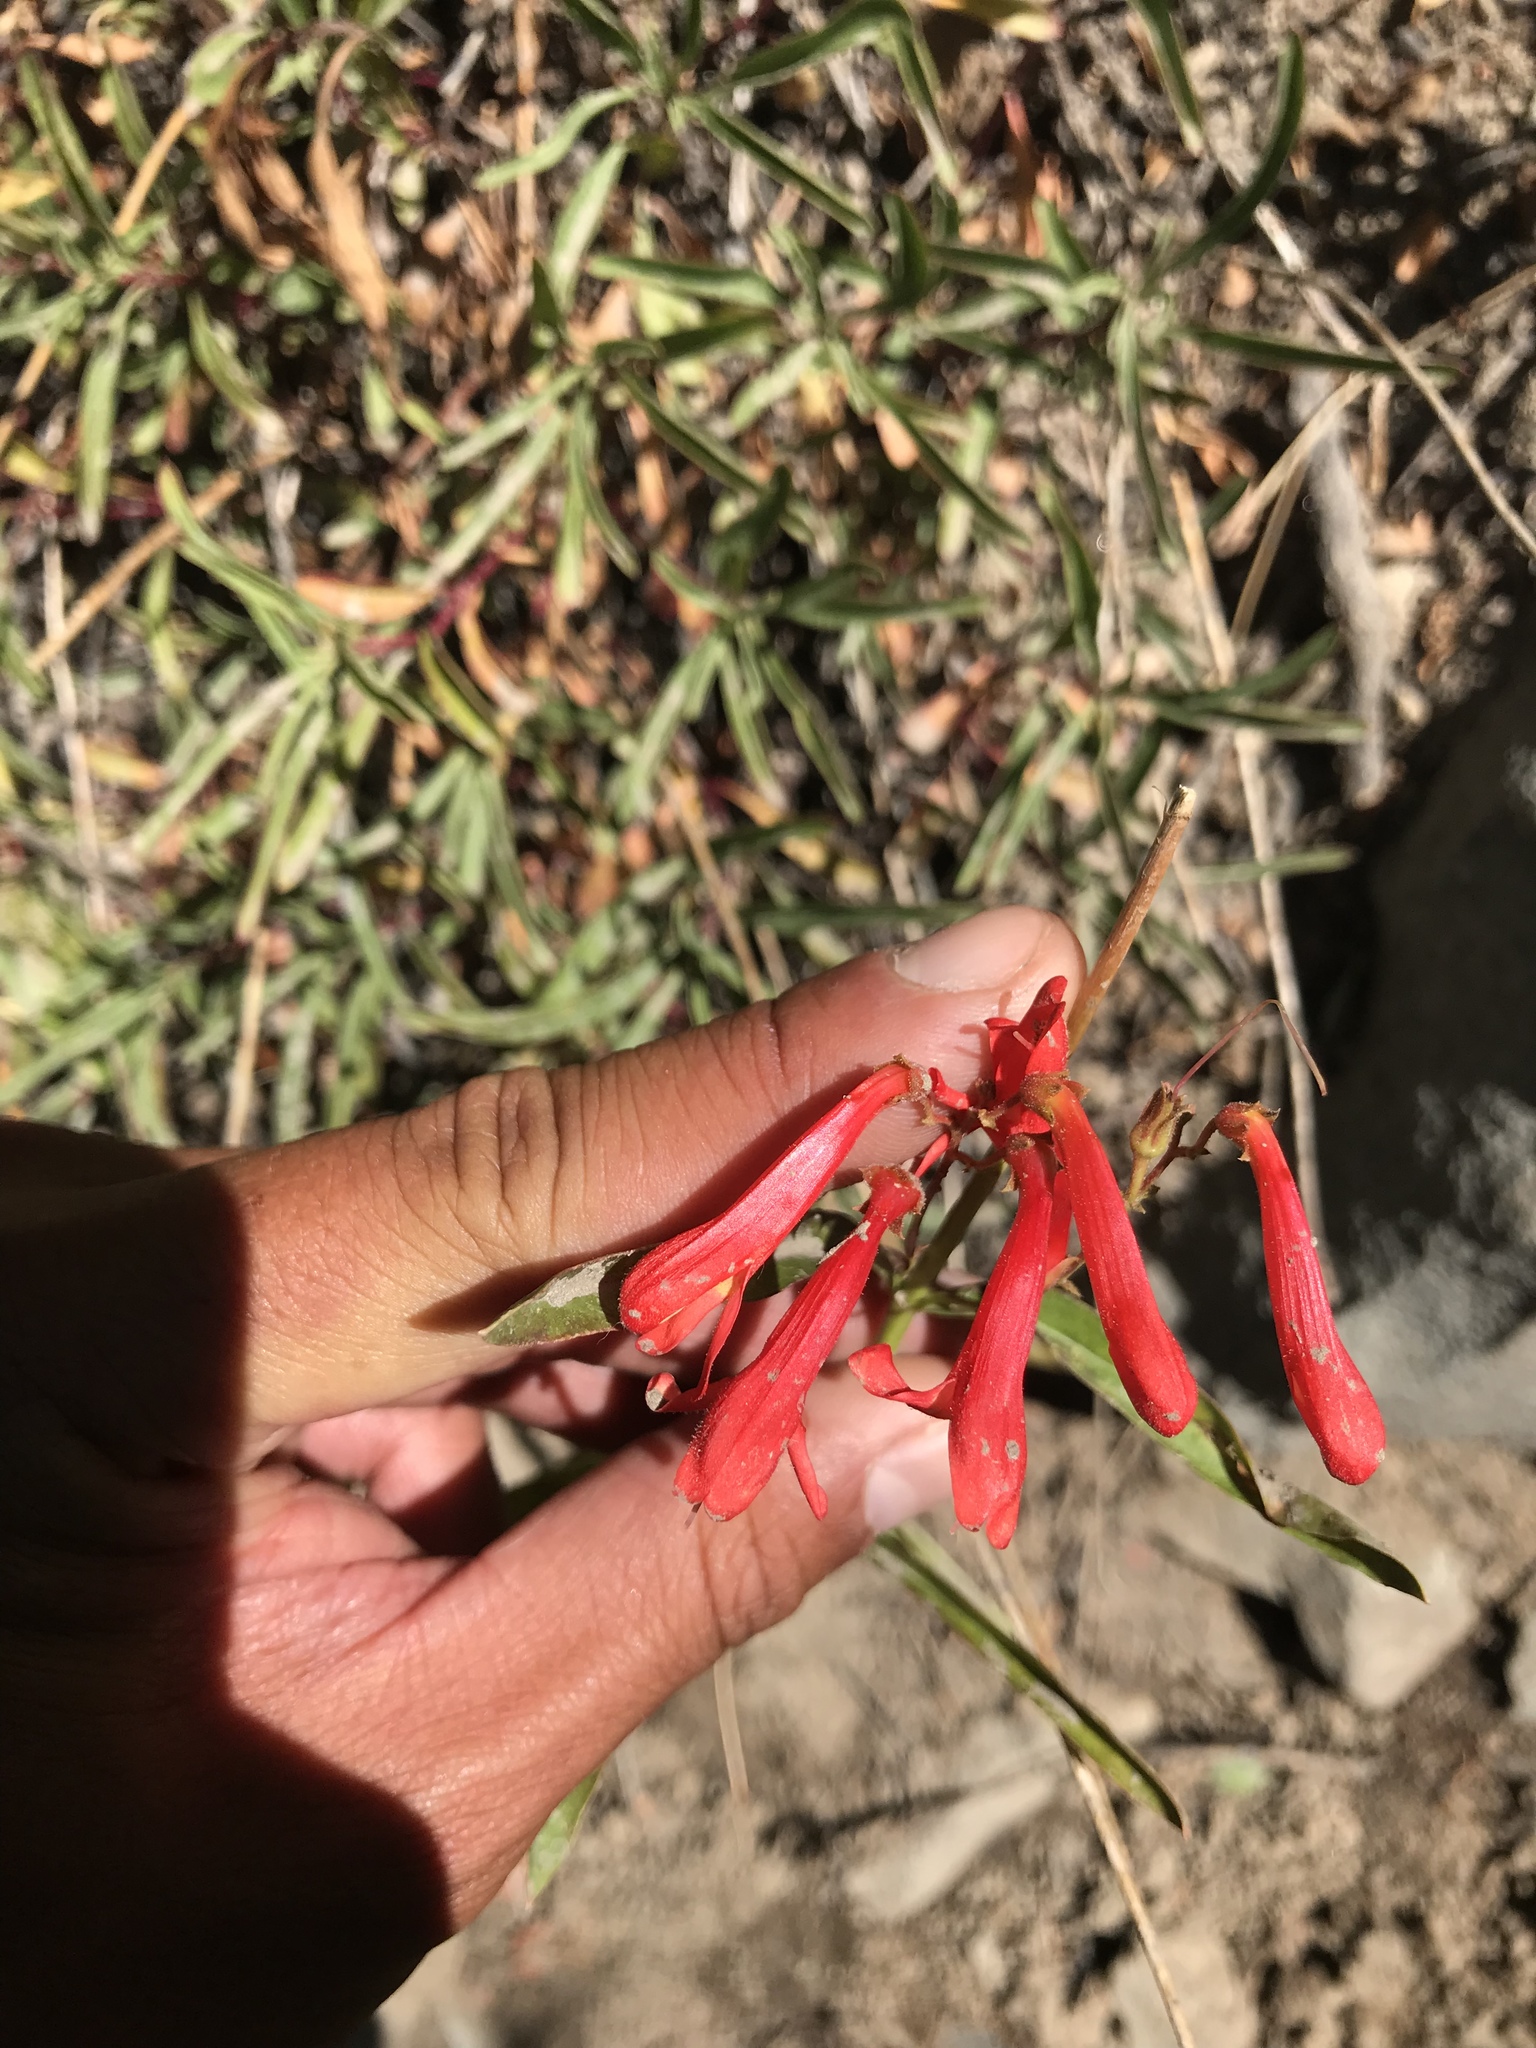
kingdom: Plantae
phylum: Tracheophyta
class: Magnoliopsida
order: Lamiales
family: Plantaginaceae
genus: Penstemon
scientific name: Penstemon rostriflorus
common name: Bridges's penstemon
